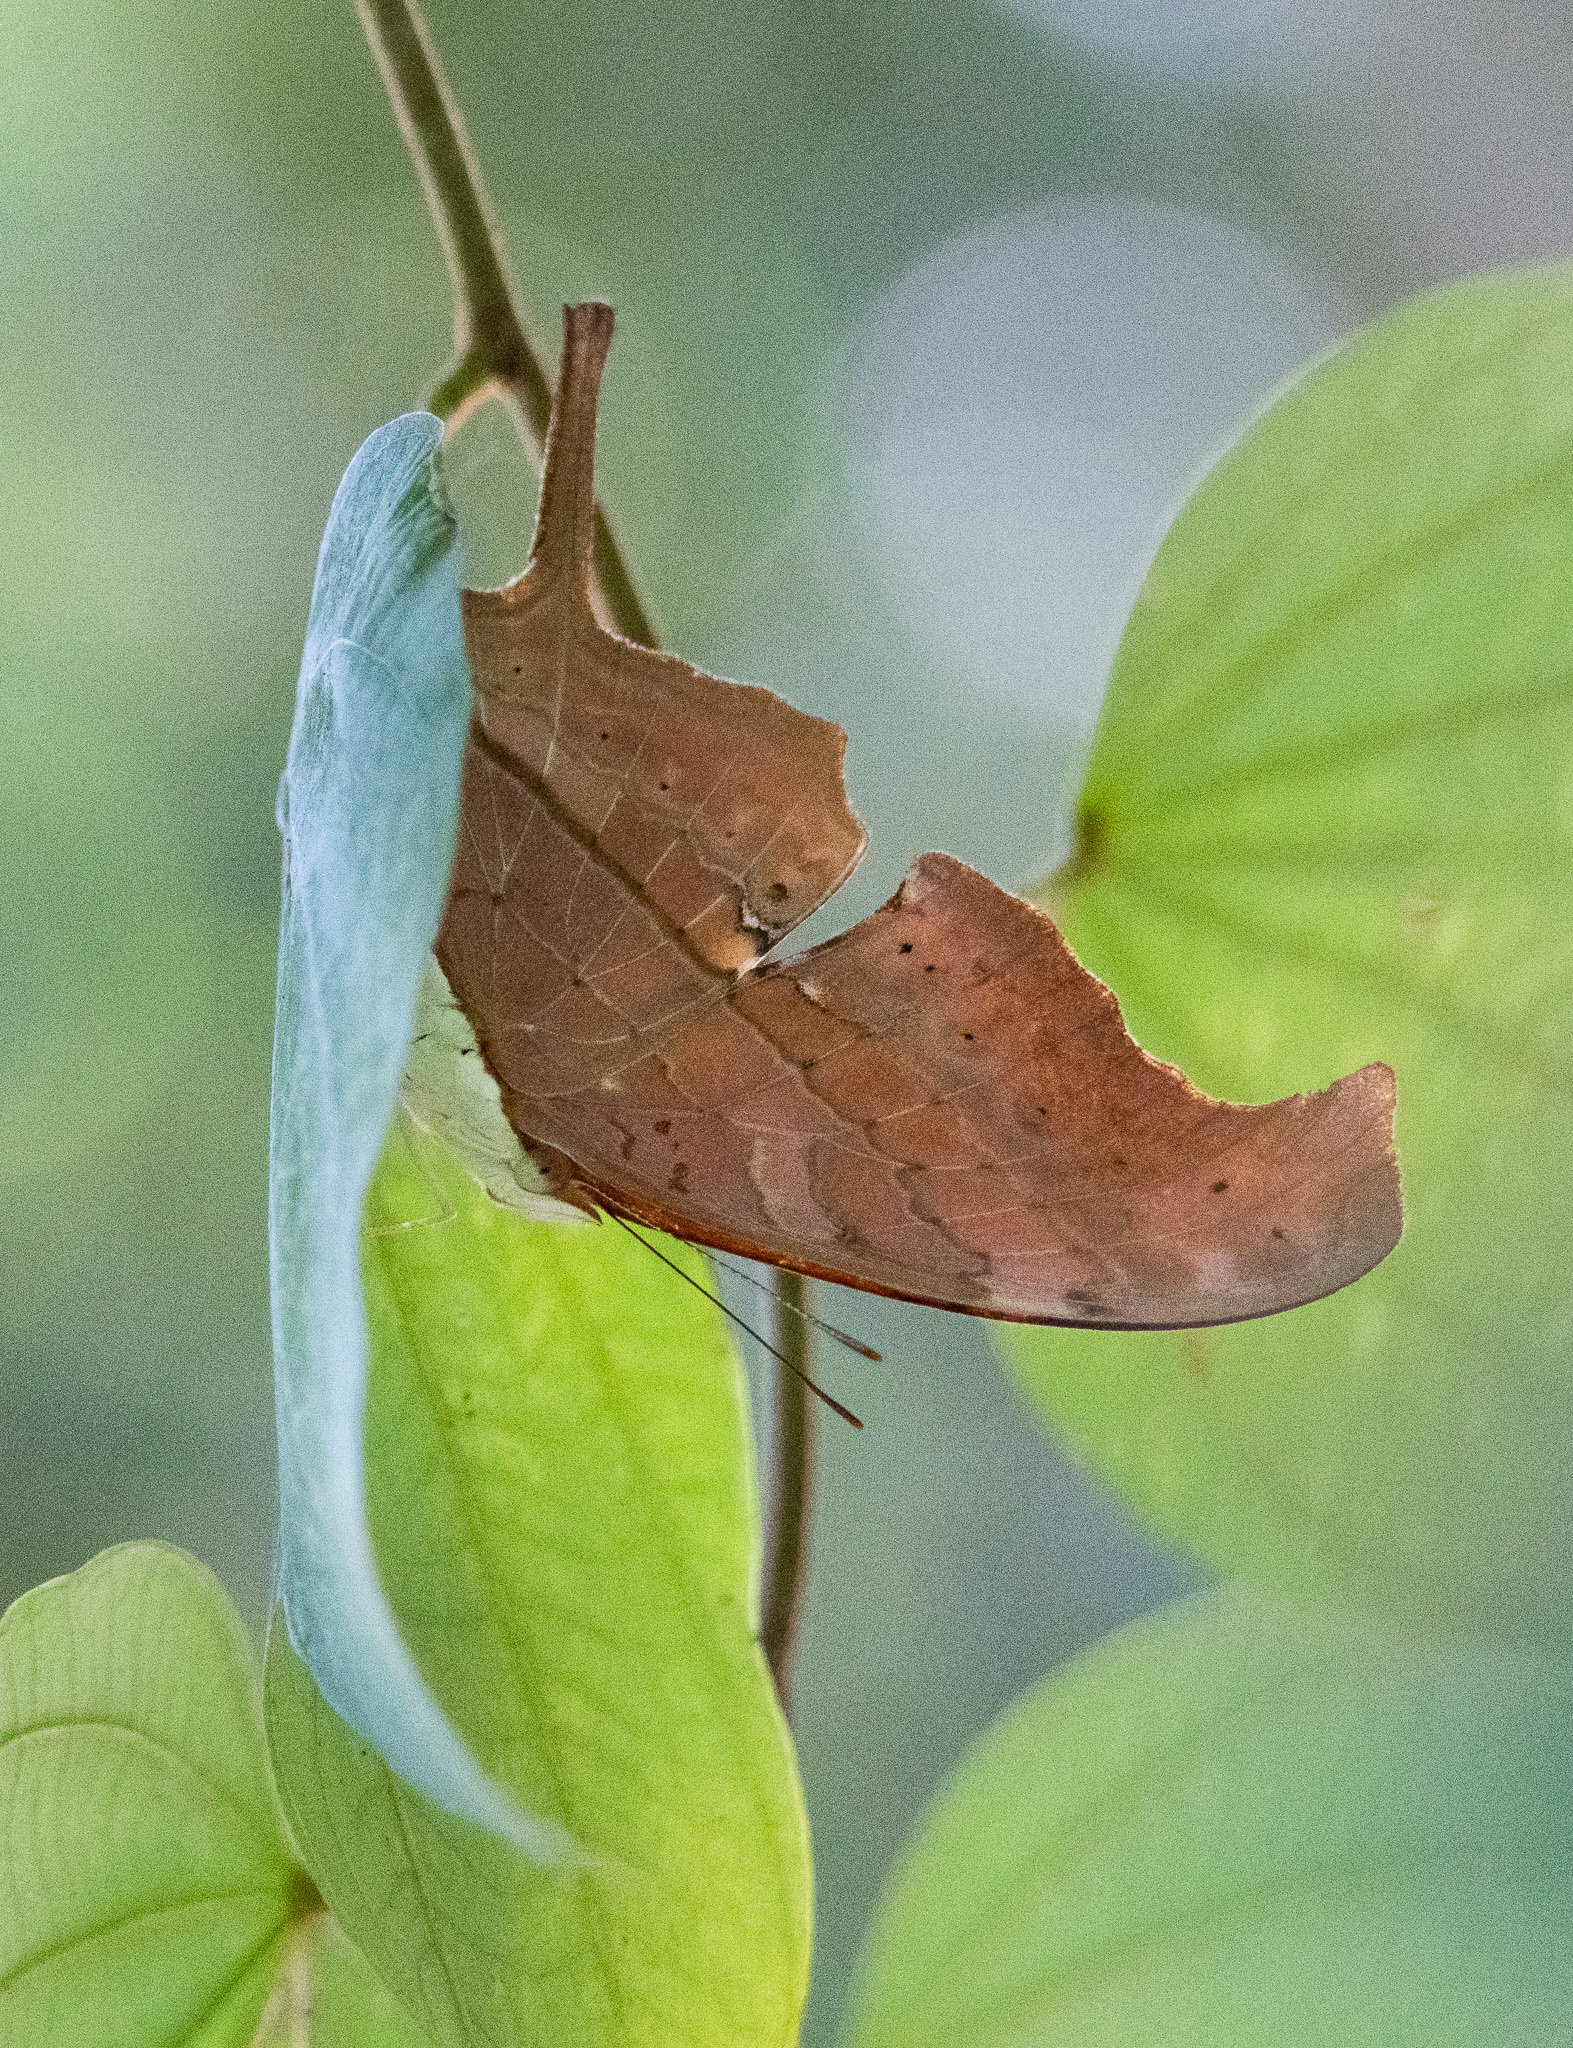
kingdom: Animalia
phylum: Arthropoda
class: Insecta
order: Lepidoptera
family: Nymphalidae
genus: Marpesia
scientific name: Marpesia petreus
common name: Red dagger wing
